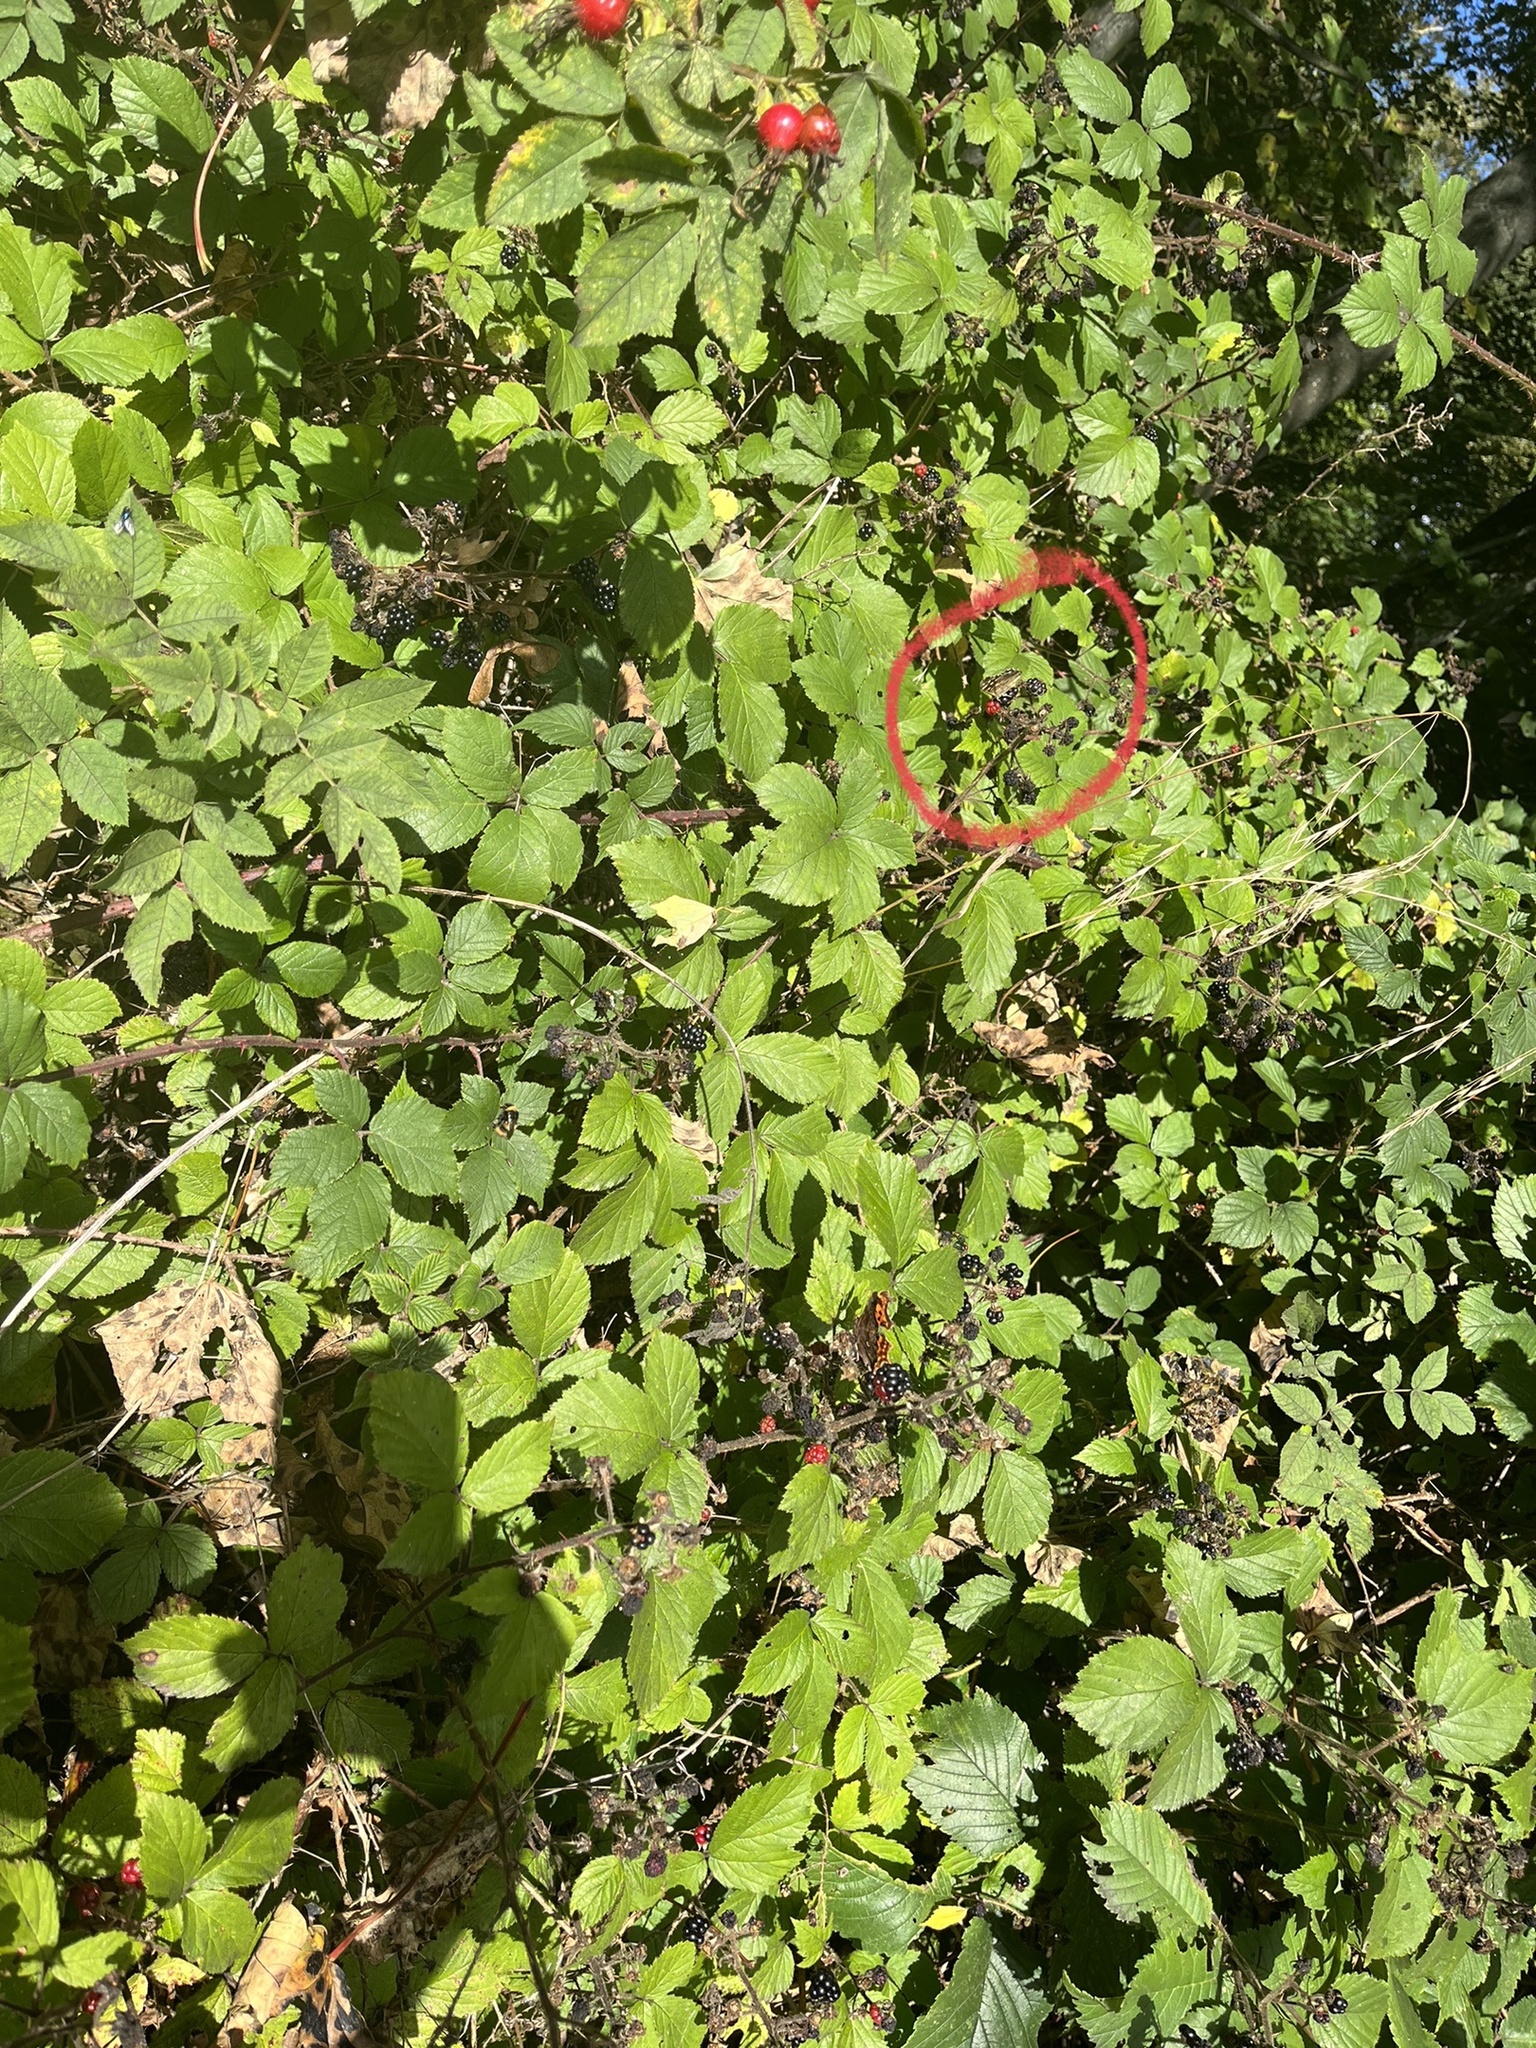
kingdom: Animalia
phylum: Arthropoda
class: Insecta
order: Lepidoptera
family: Nymphalidae
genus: Pararge
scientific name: Pararge aegeria
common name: Speckled wood
